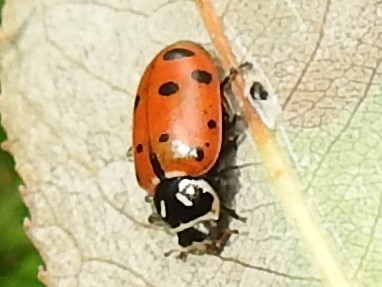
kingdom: Animalia
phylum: Arthropoda
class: Insecta
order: Coleoptera
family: Coccinellidae
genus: Hippodamia
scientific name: Hippodamia convergens
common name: Convergent lady beetle
